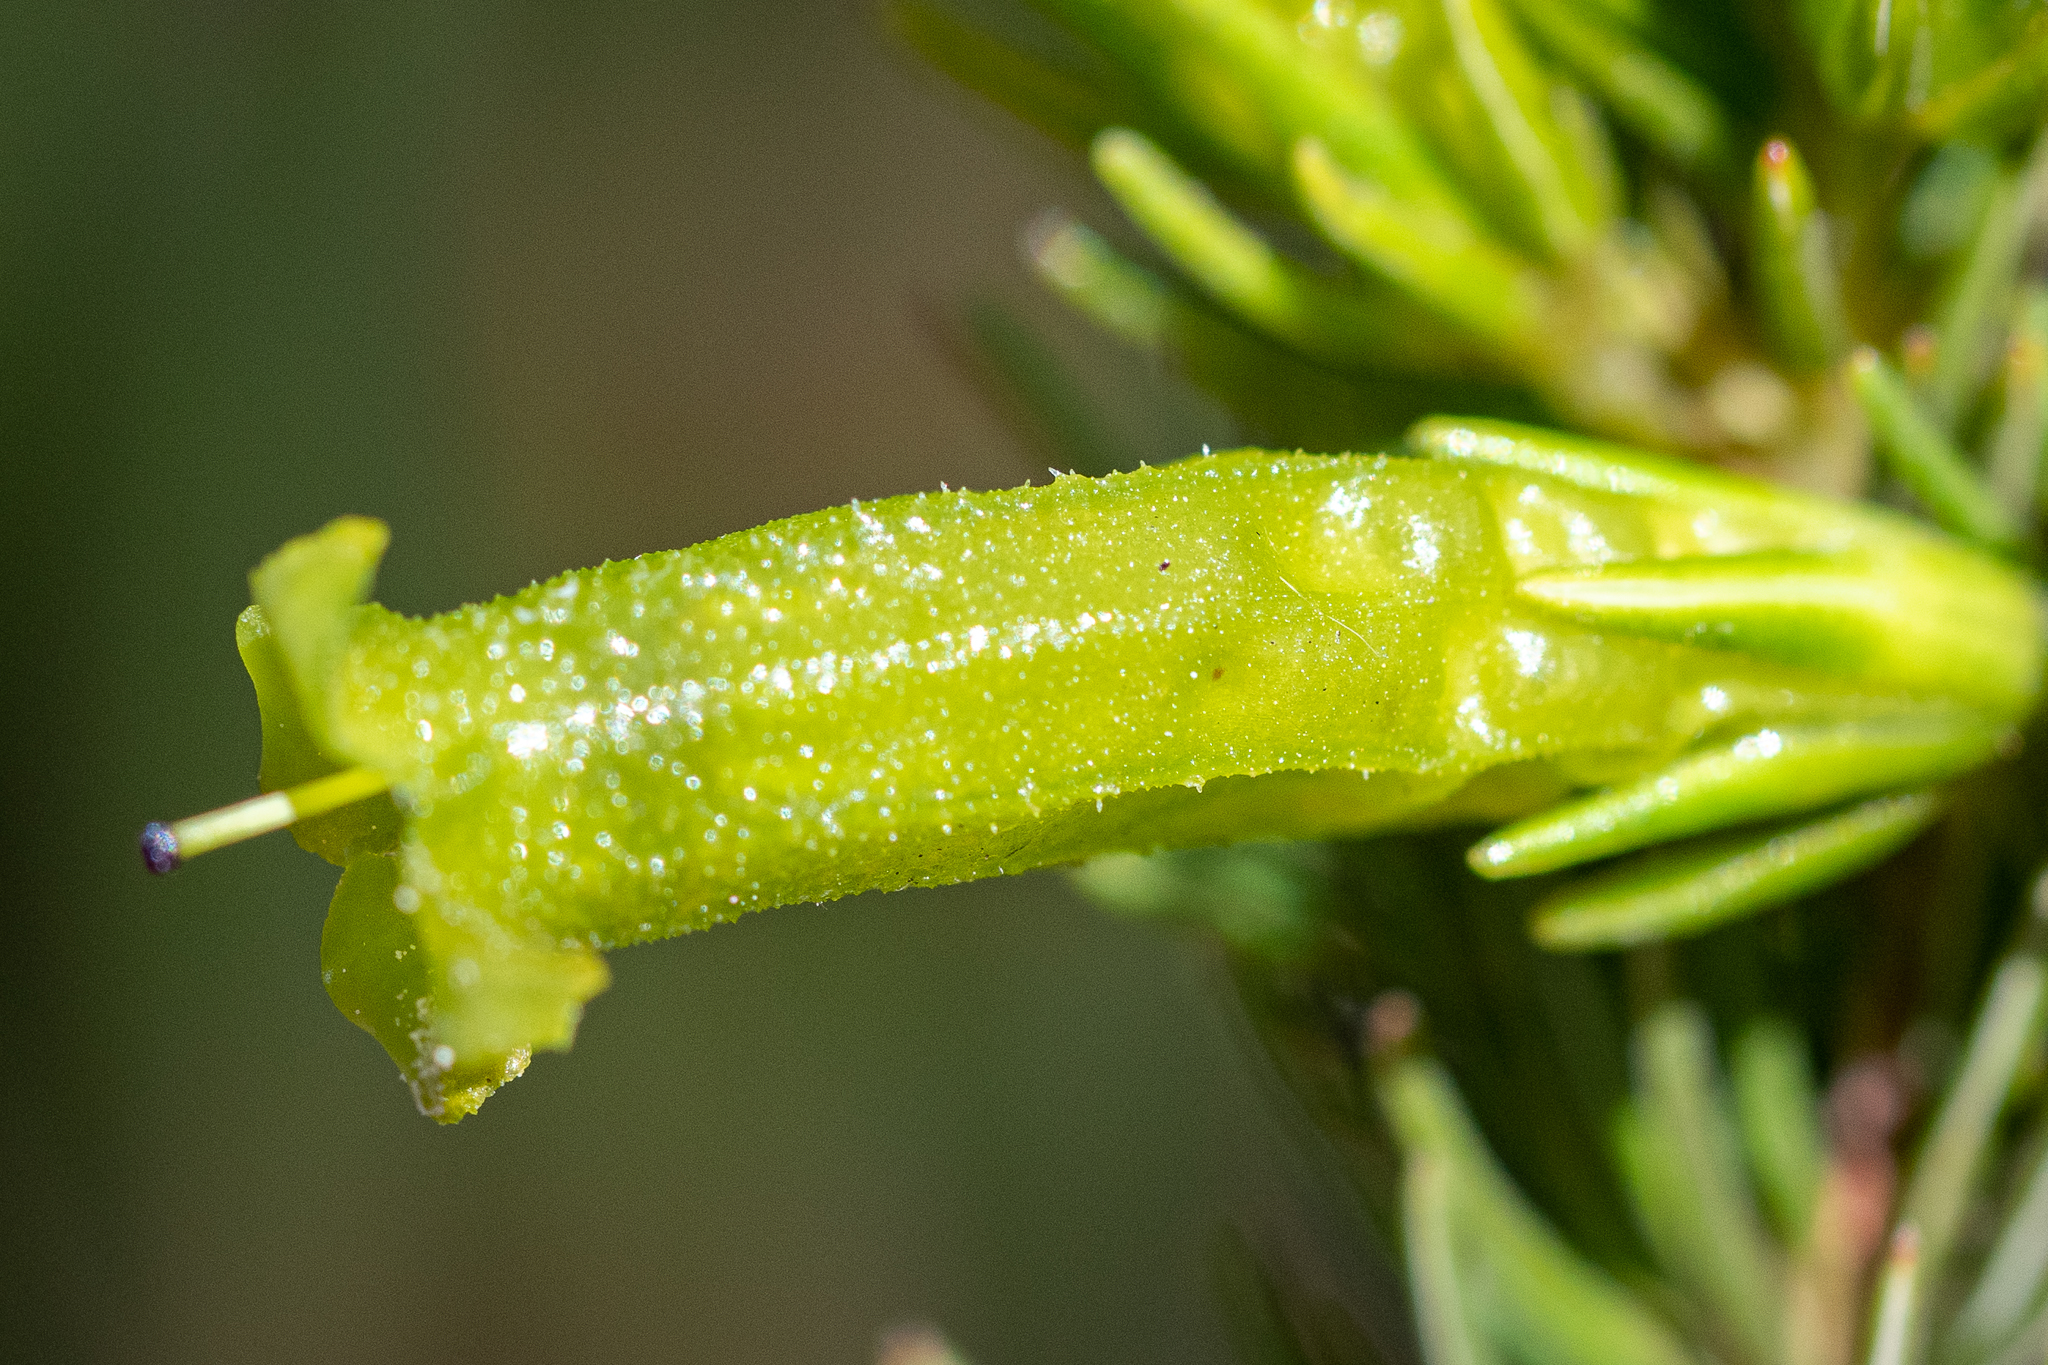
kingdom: Plantae
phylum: Tracheophyta
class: Magnoliopsida
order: Ericales
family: Ericaceae
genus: Erica
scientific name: Erica viscaria
